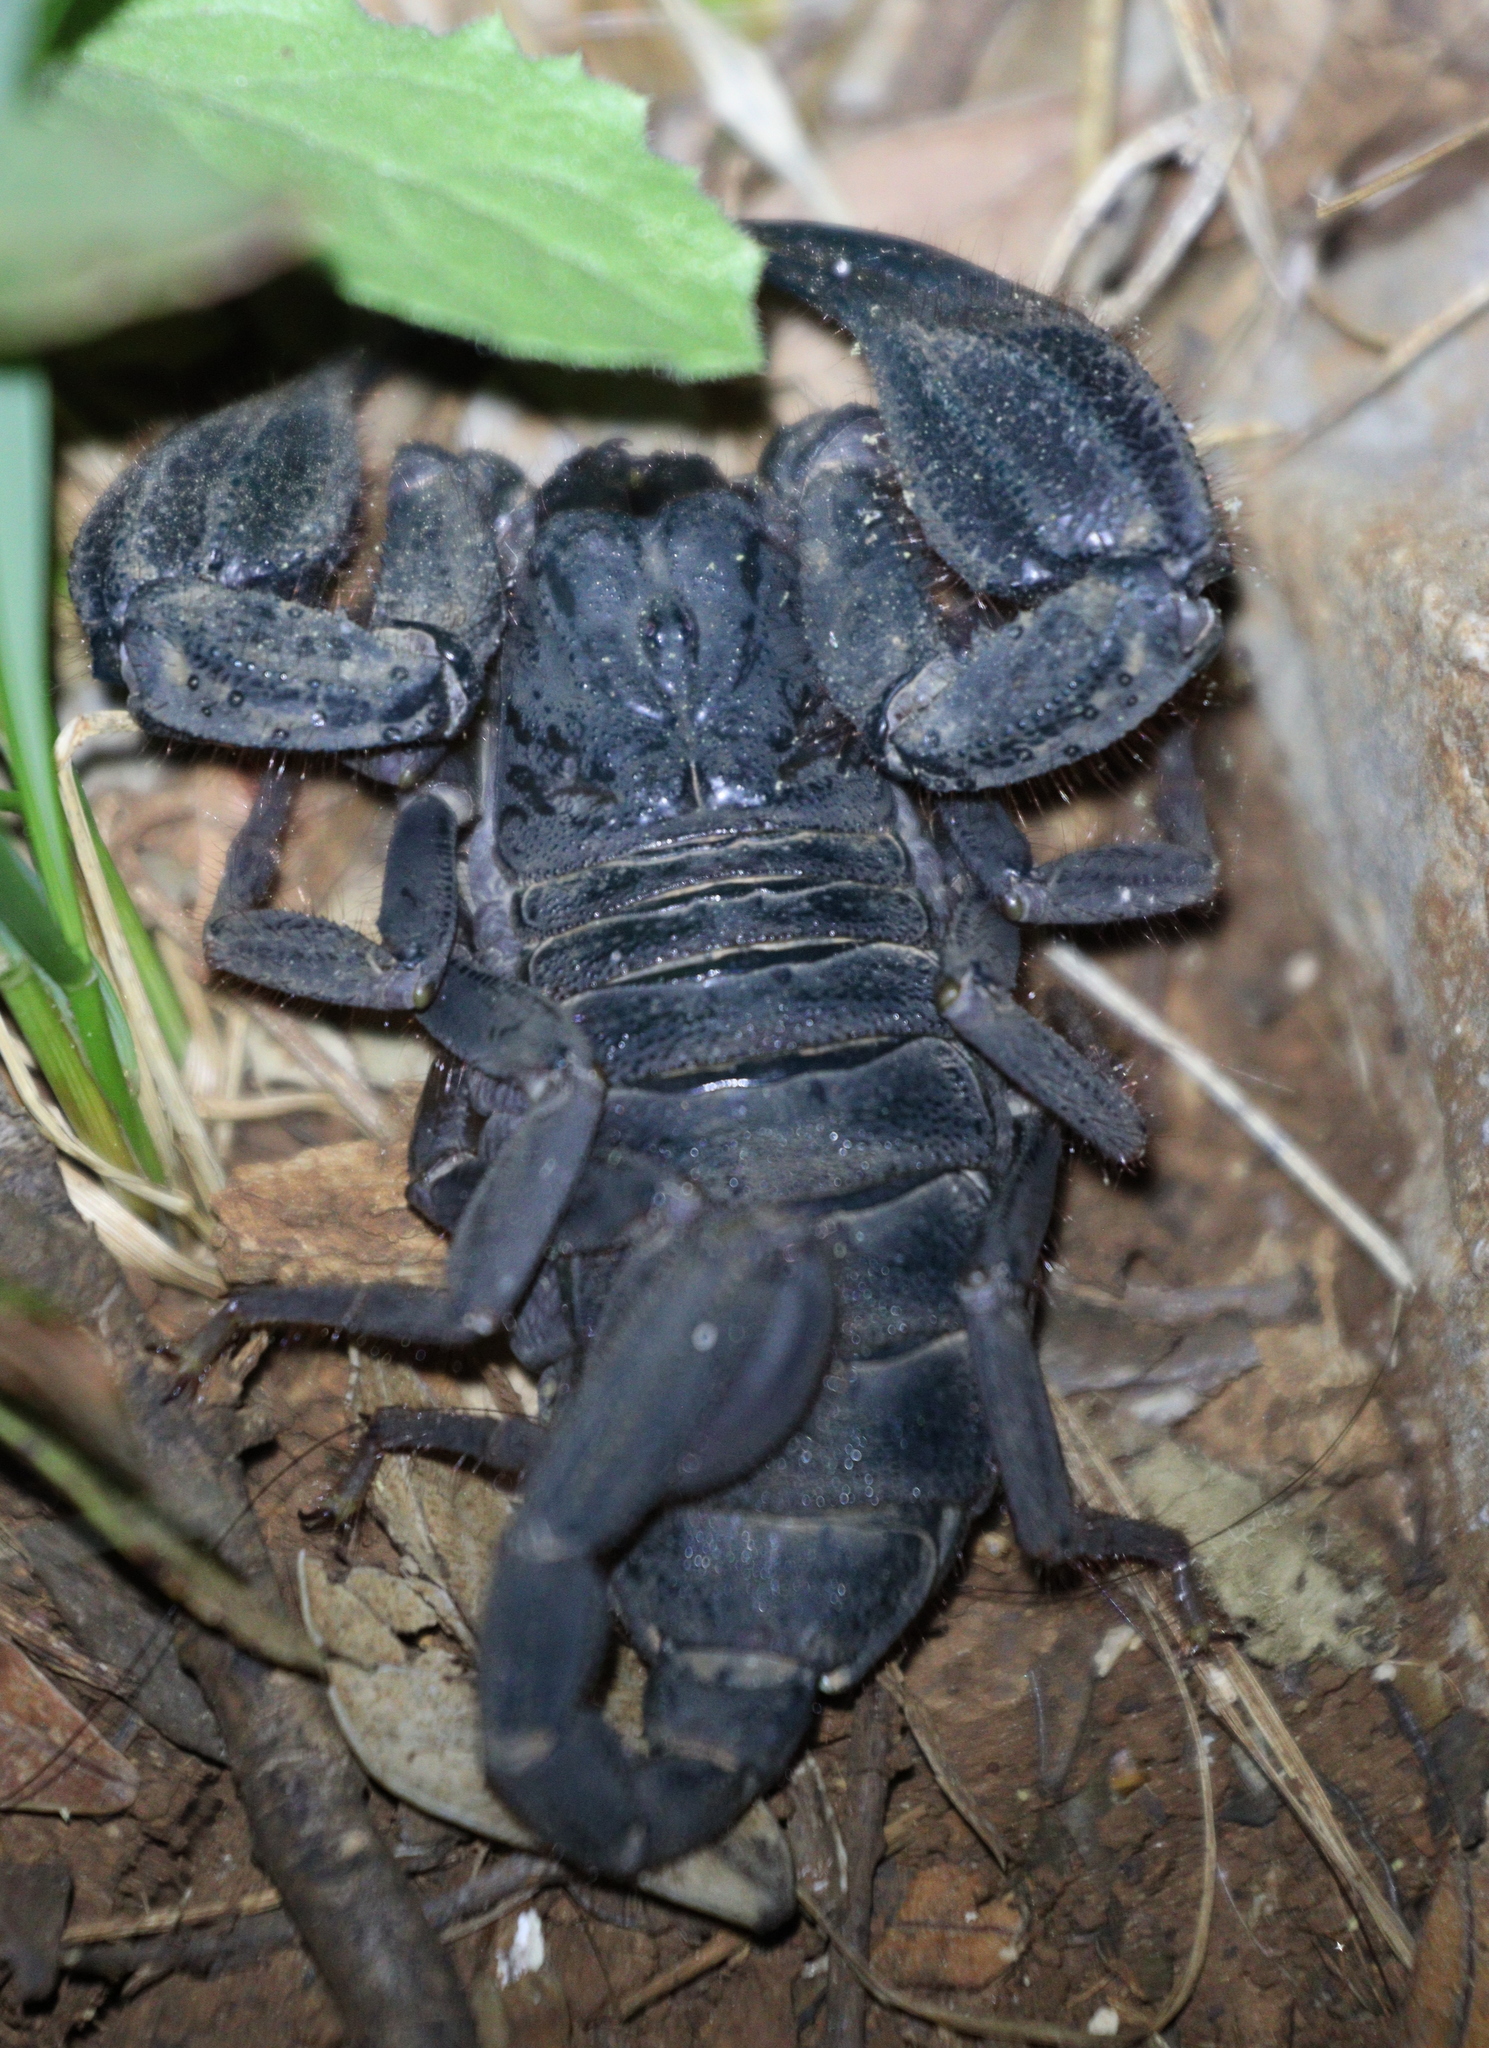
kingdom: Animalia
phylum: Arthropoda
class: Arachnida
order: Scorpiones
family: Iuridae
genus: Anatoliurus
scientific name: Anatoliurus kraepelini
